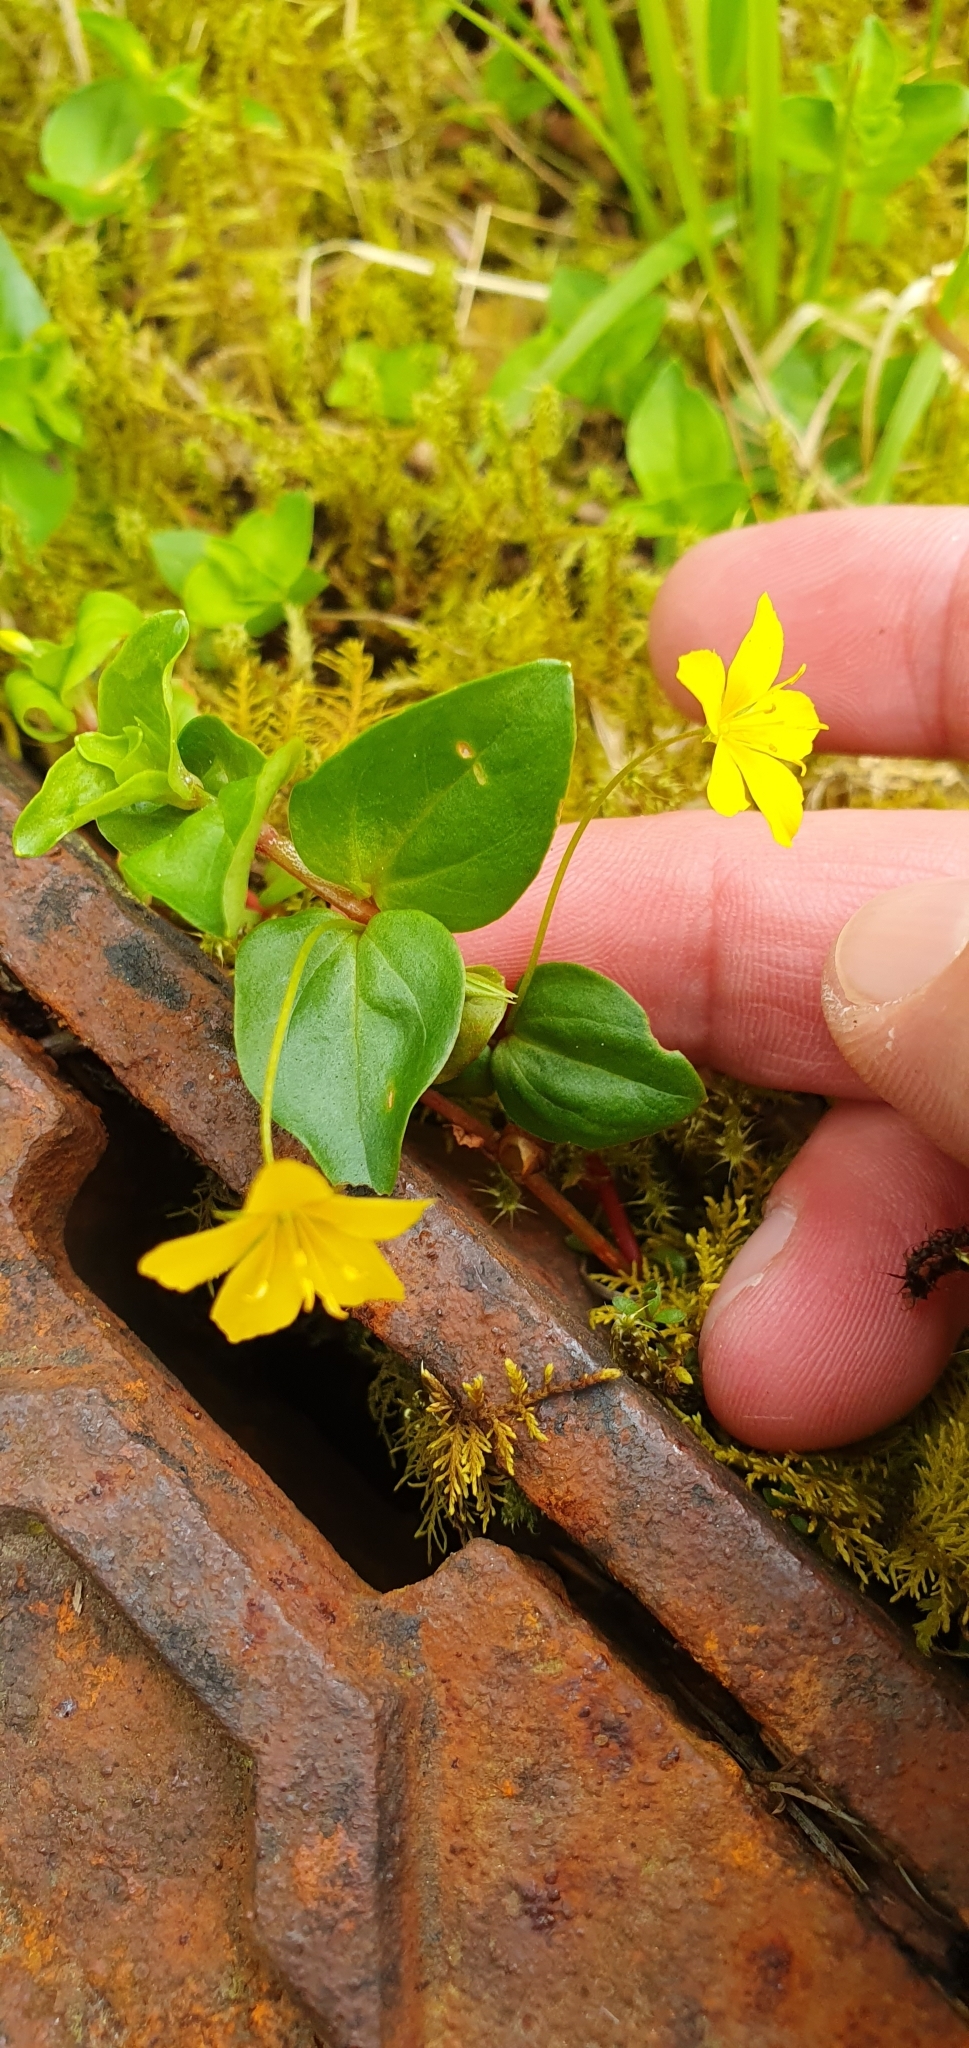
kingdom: Plantae
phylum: Tracheophyta
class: Magnoliopsida
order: Ericales
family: Primulaceae
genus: Lysimachia
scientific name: Lysimachia nemorum
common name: Yellow pimpernel
